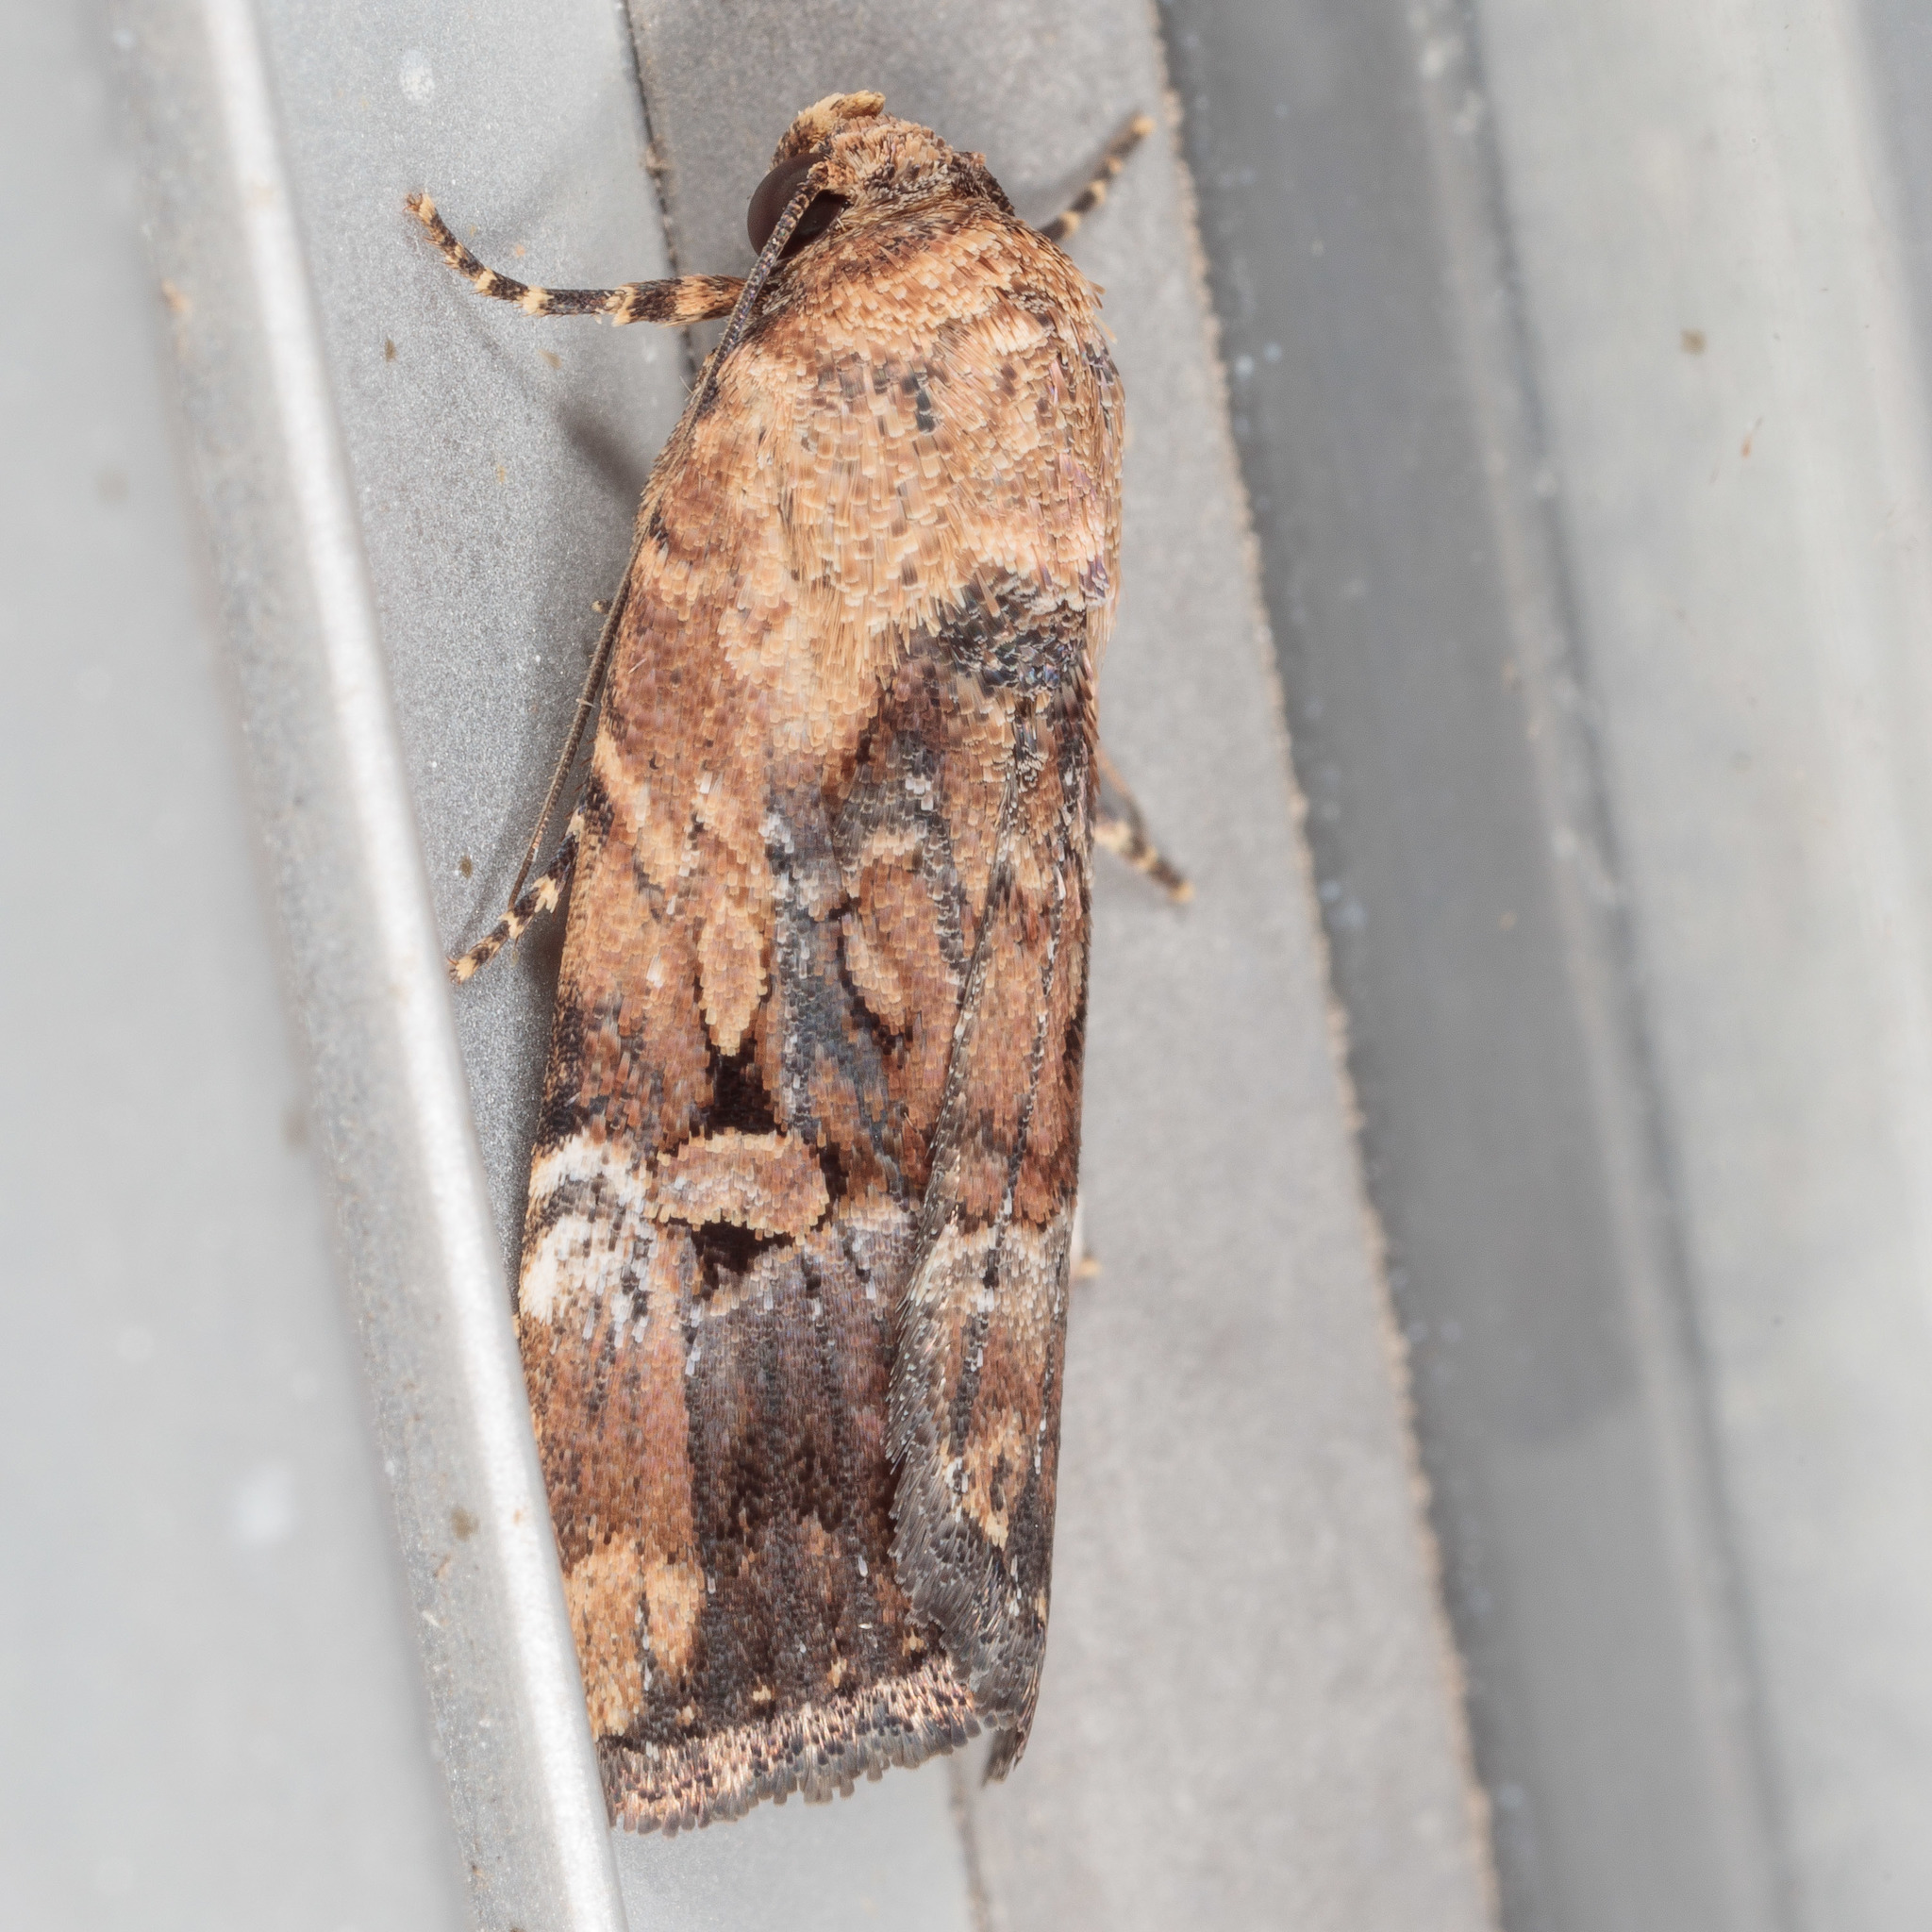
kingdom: Animalia
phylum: Arthropoda
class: Insecta
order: Lepidoptera
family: Noctuidae
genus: Elaphria
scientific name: Elaphria chalcedonia
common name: Chalcedony midget
